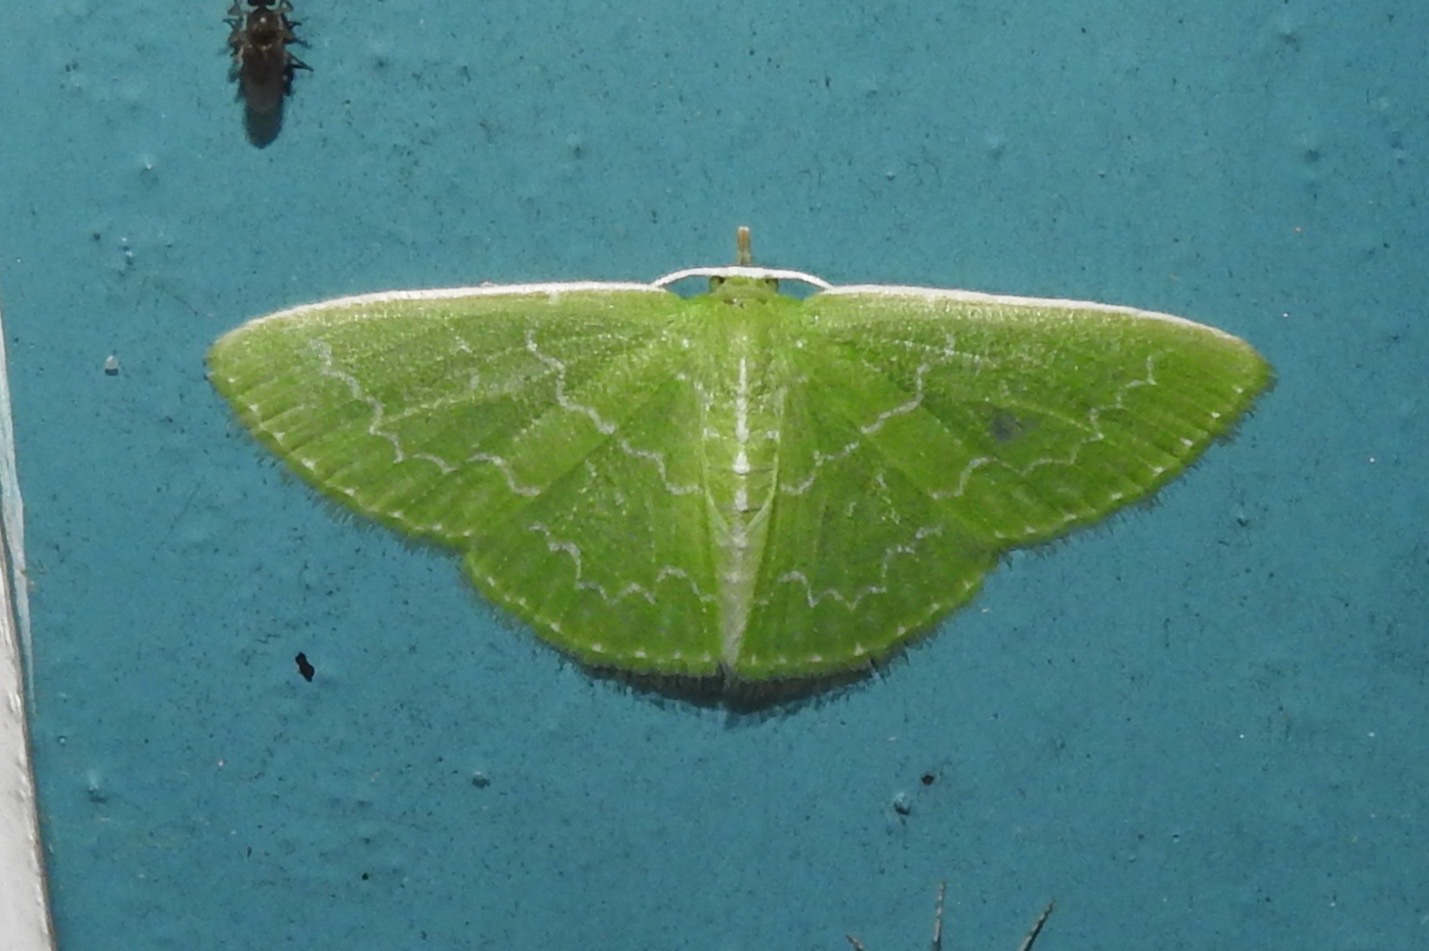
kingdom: Animalia
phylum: Arthropoda
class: Insecta
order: Lepidoptera
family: Geometridae
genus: Synchlora
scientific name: Synchlora frondaria
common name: Southern emerald
